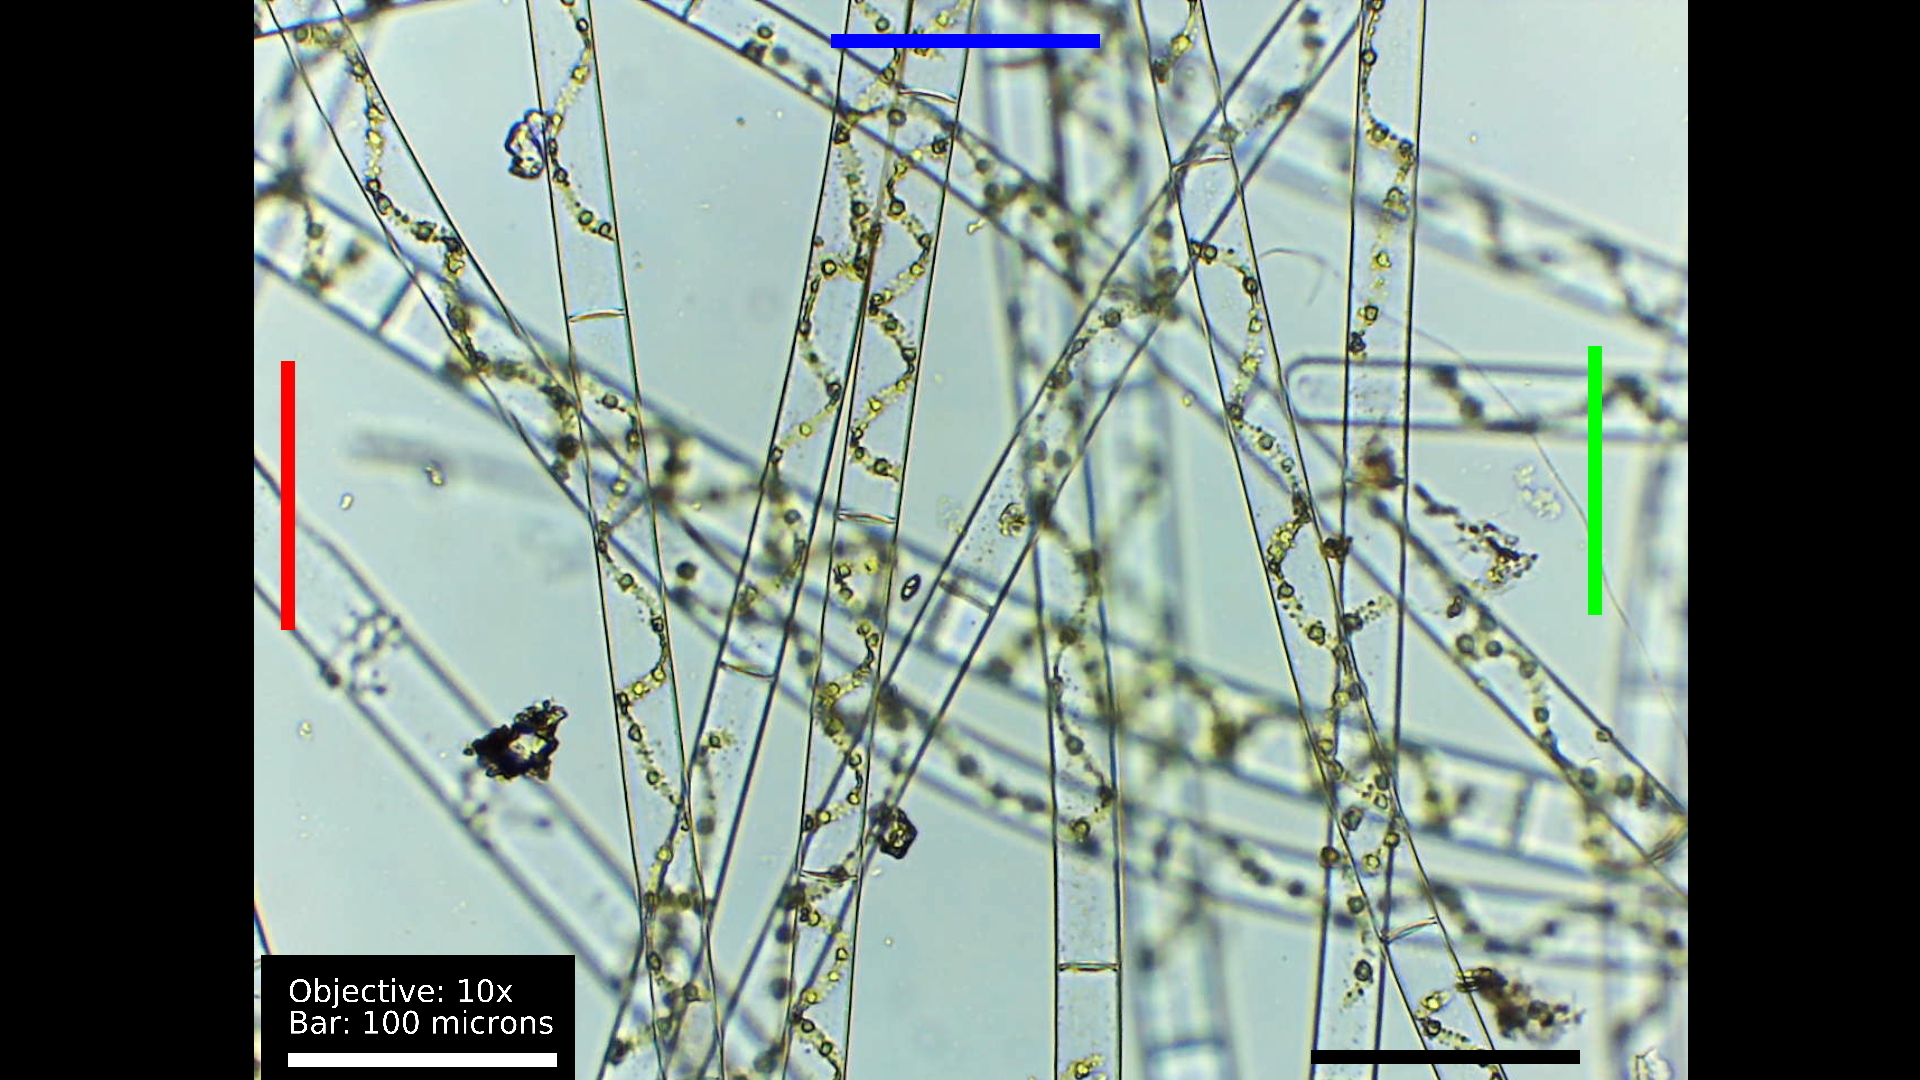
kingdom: Plantae
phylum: Charophyta
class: Zygnematophyceae
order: Zygnematales
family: Zygnemataceae
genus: Spirogyra
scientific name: Spirogyra
